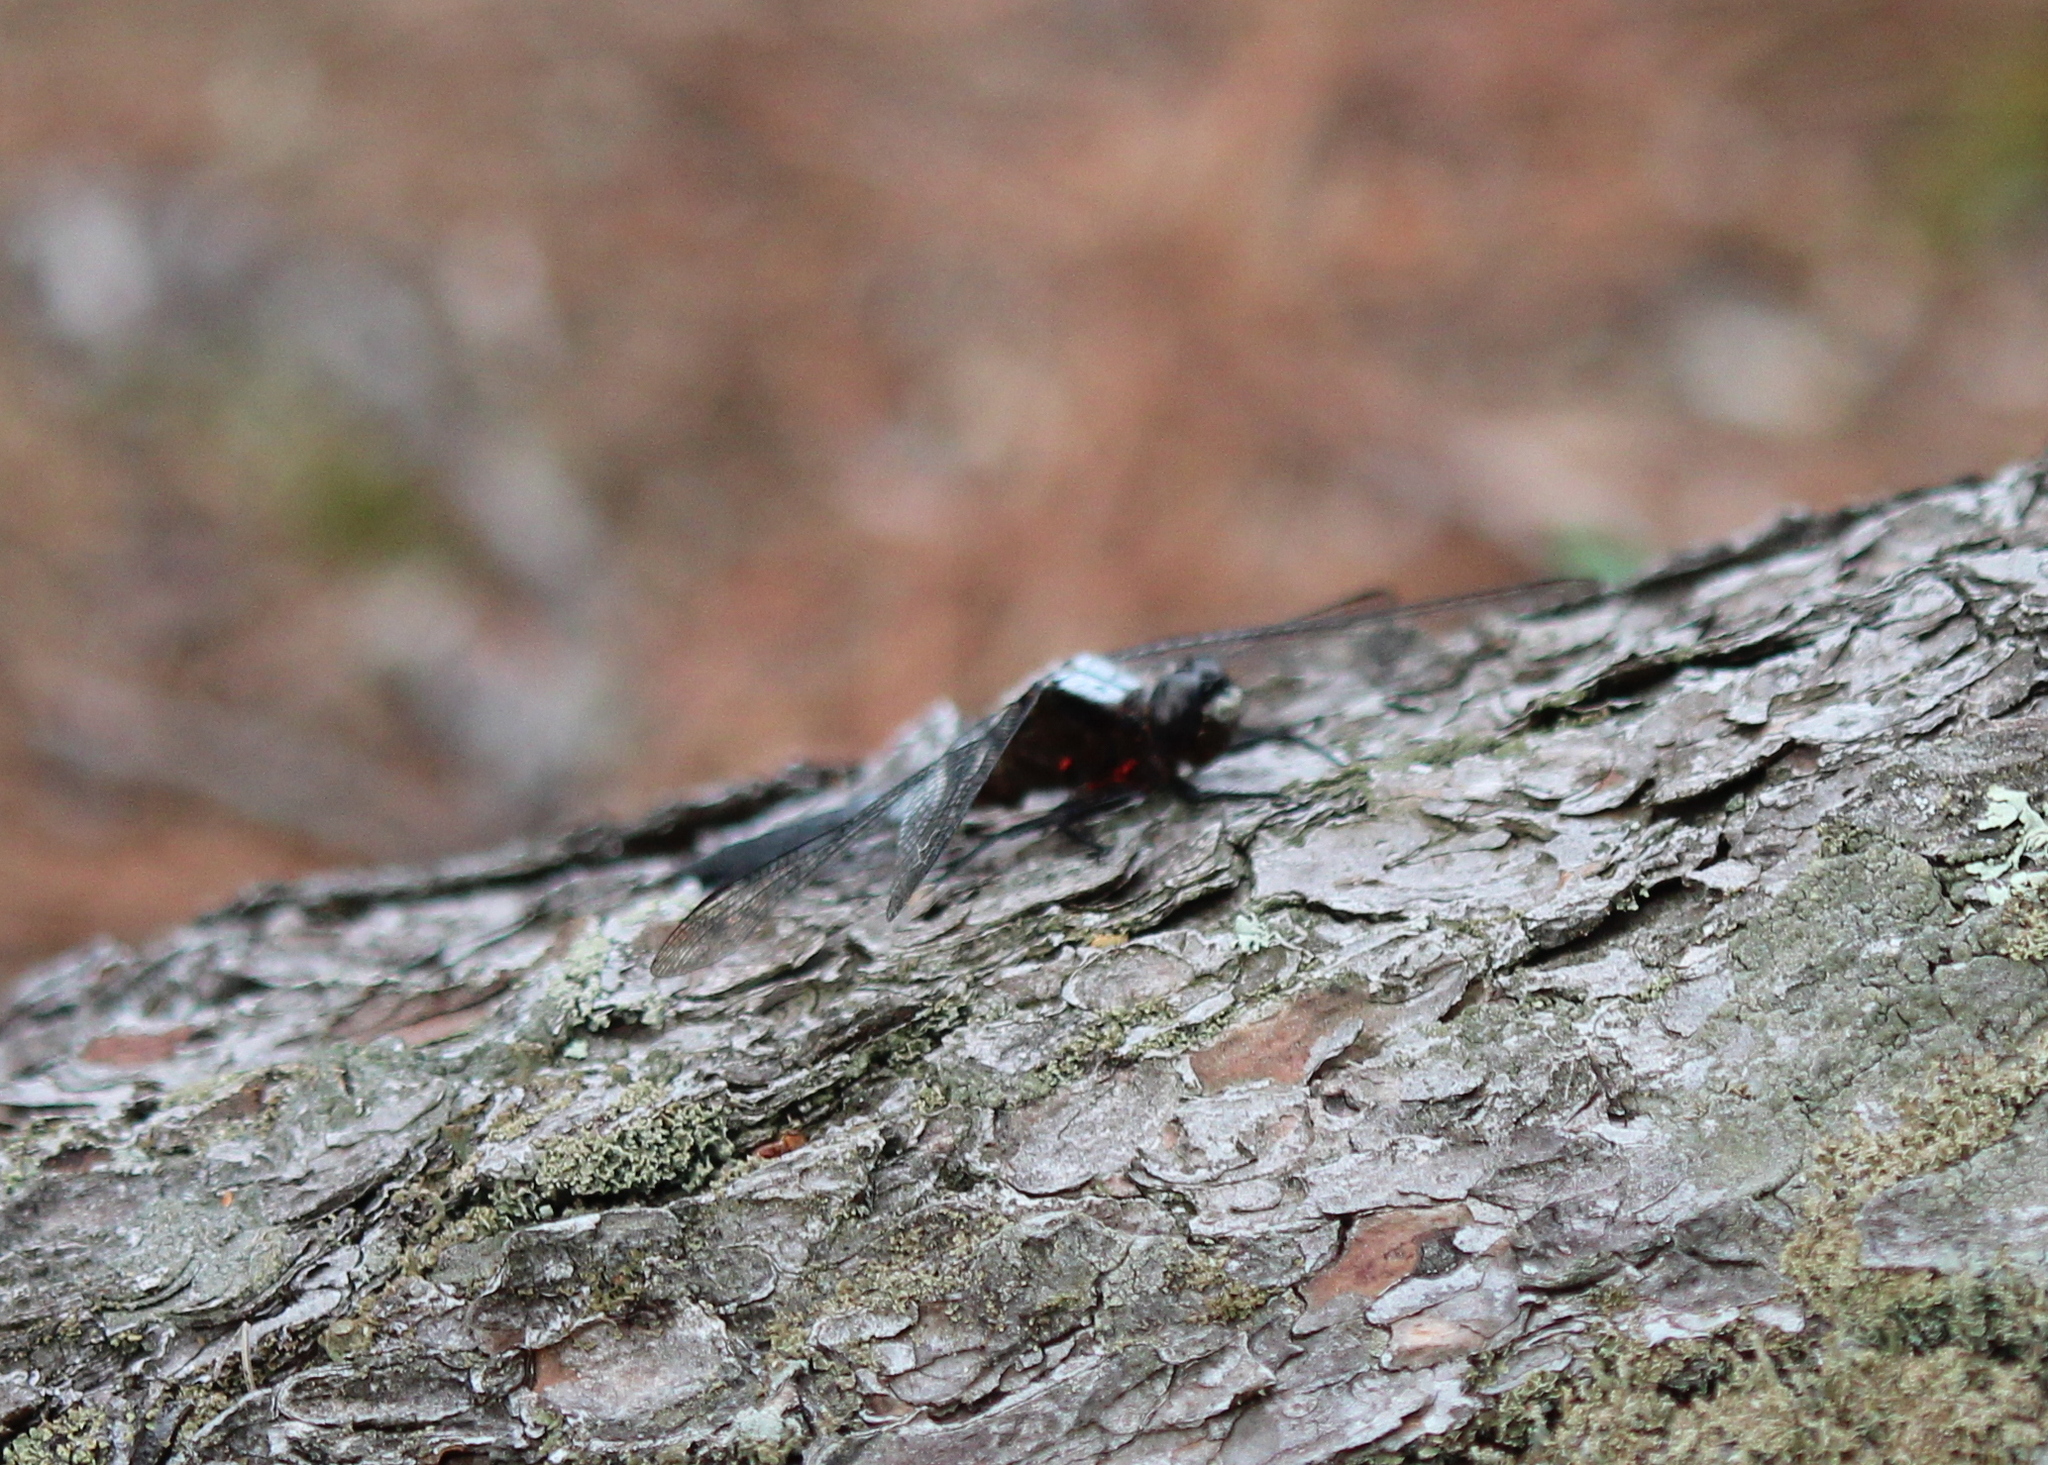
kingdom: Animalia
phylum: Arthropoda
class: Insecta
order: Odonata
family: Libellulidae
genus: Ladona
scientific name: Ladona julia
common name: Chalk-fronted corporal
